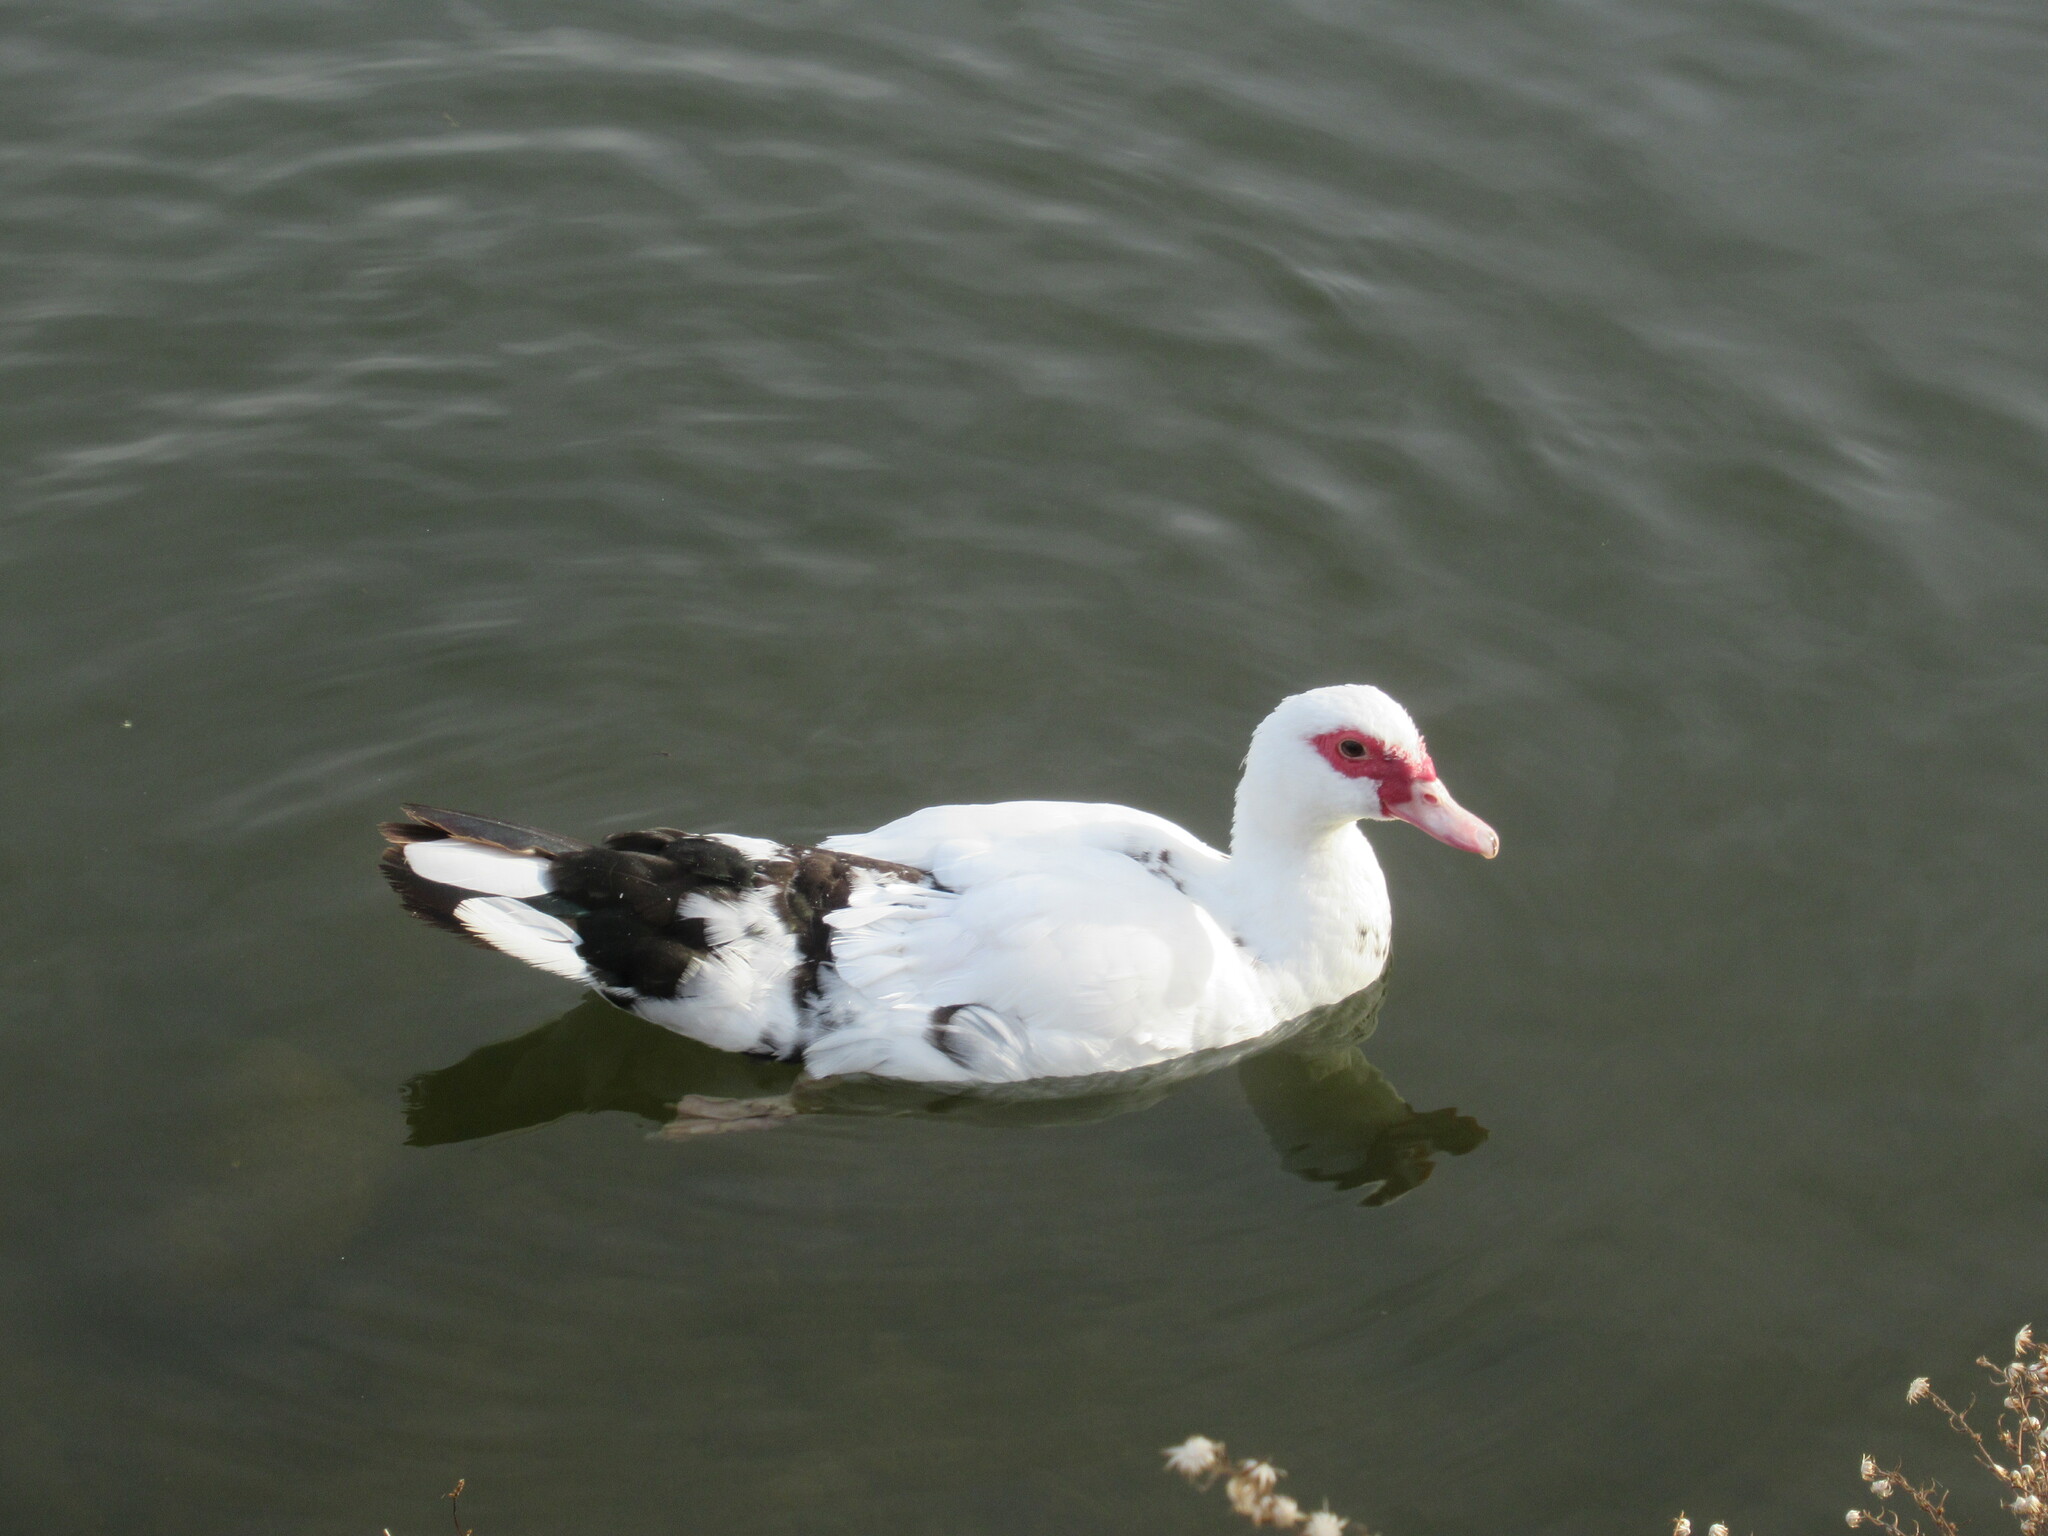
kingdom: Animalia
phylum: Chordata
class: Aves
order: Anseriformes
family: Anatidae
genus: Cairina
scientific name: Cairina moschata
